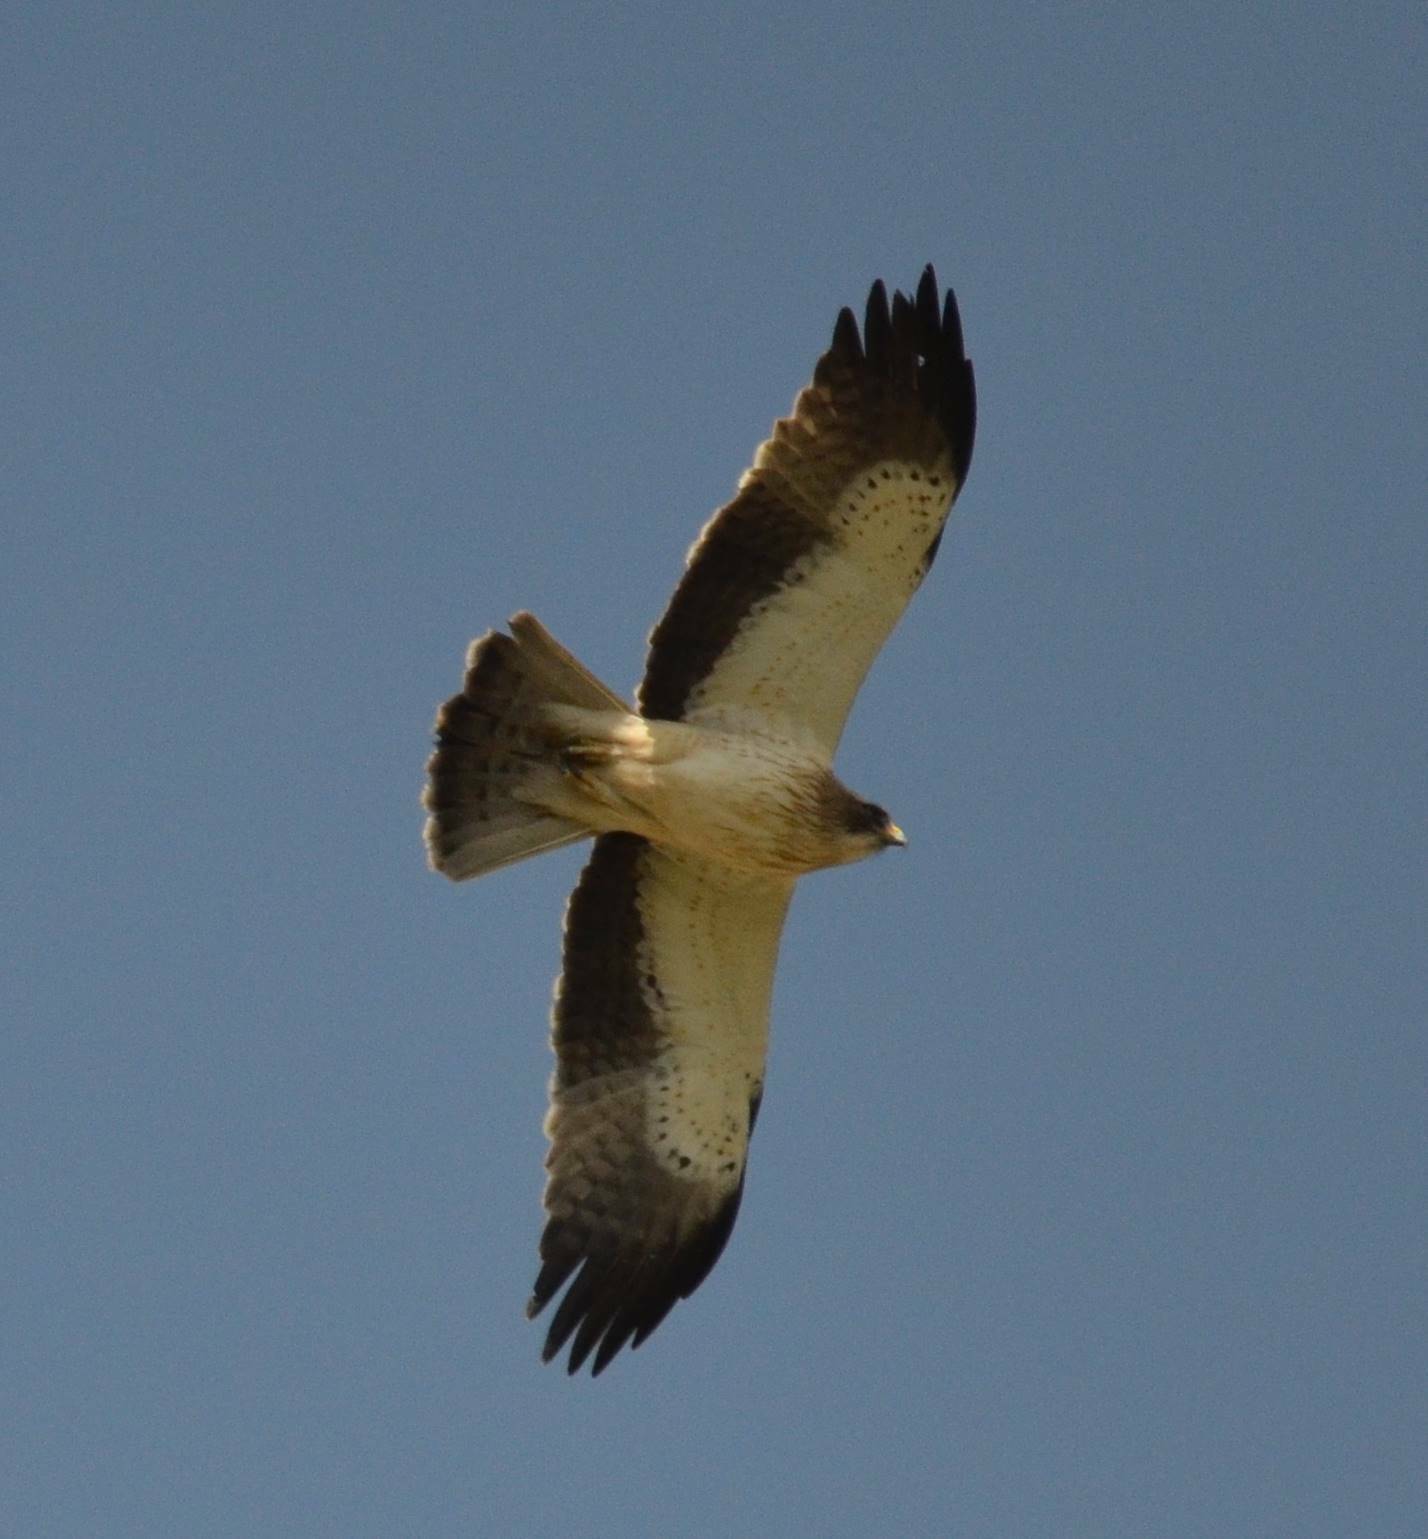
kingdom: Animalia
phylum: Chordata
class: Aves
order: Accipitriformes
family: Accipitridae
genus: Hieraaetus
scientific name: Hieraaetus pennatus
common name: Booted eagle
